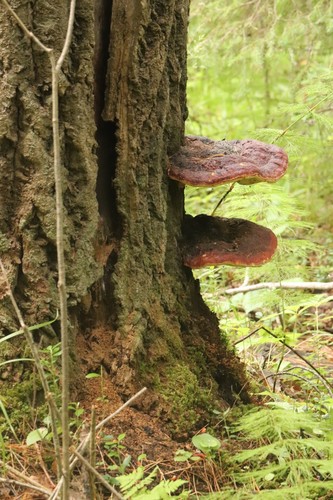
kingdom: Fungi
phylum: Basidiomycota
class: Agaricomycetes
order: Polyporales
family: Fomitopsidaceae
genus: Fomitopsis
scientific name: Fomitopsis pinicola
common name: Red-belted bracket
